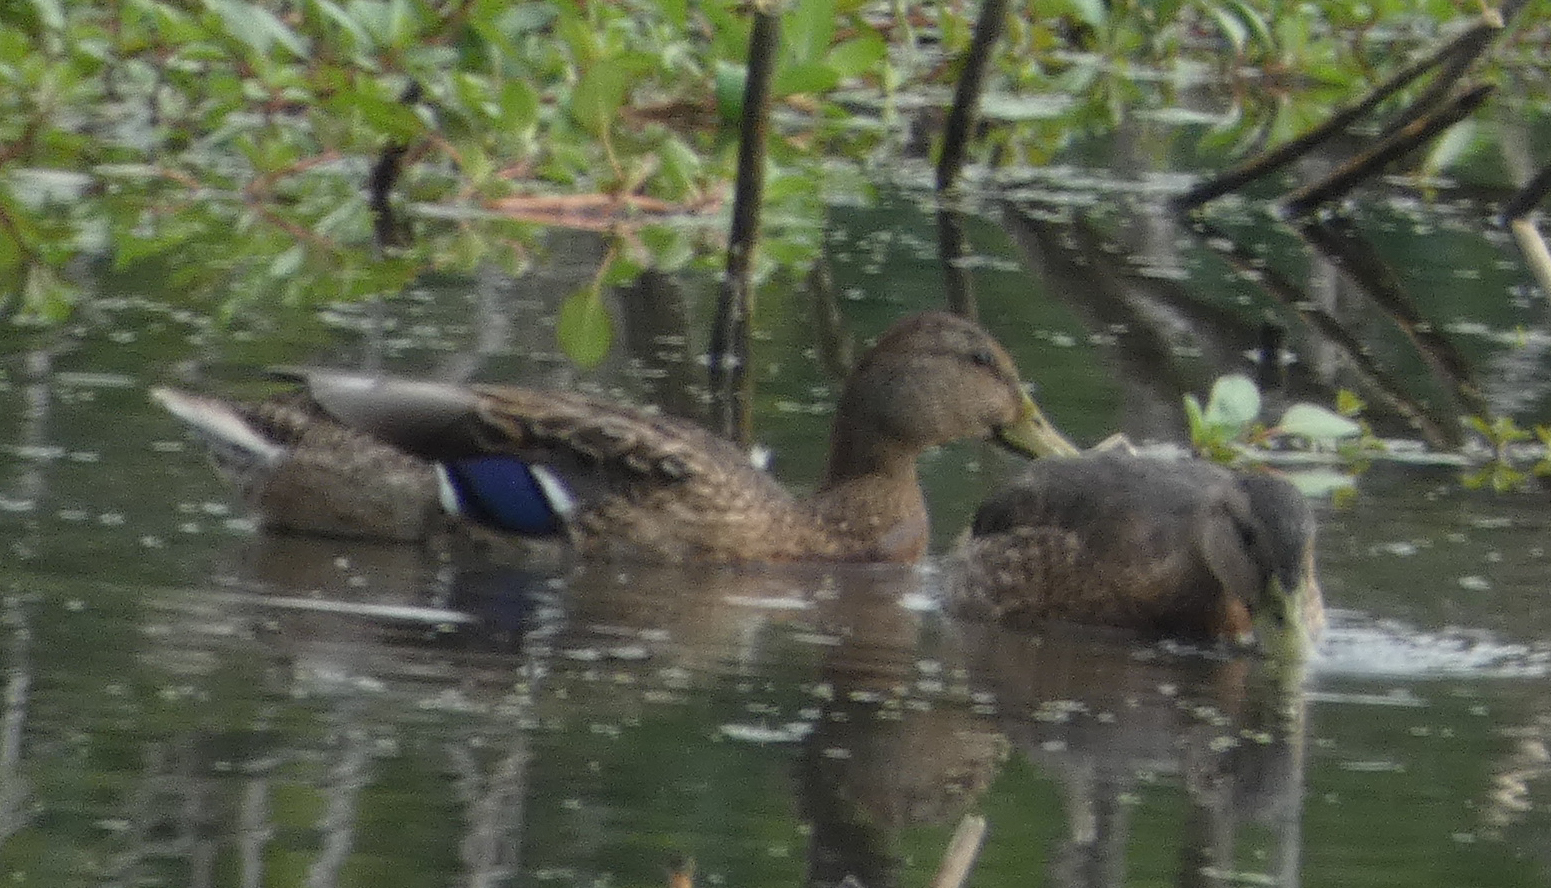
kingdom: Animalia
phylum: Chordata
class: Aves
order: Anseriformes
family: Anatidae
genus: Anas
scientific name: Anas platyrhynchos
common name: Mallard
